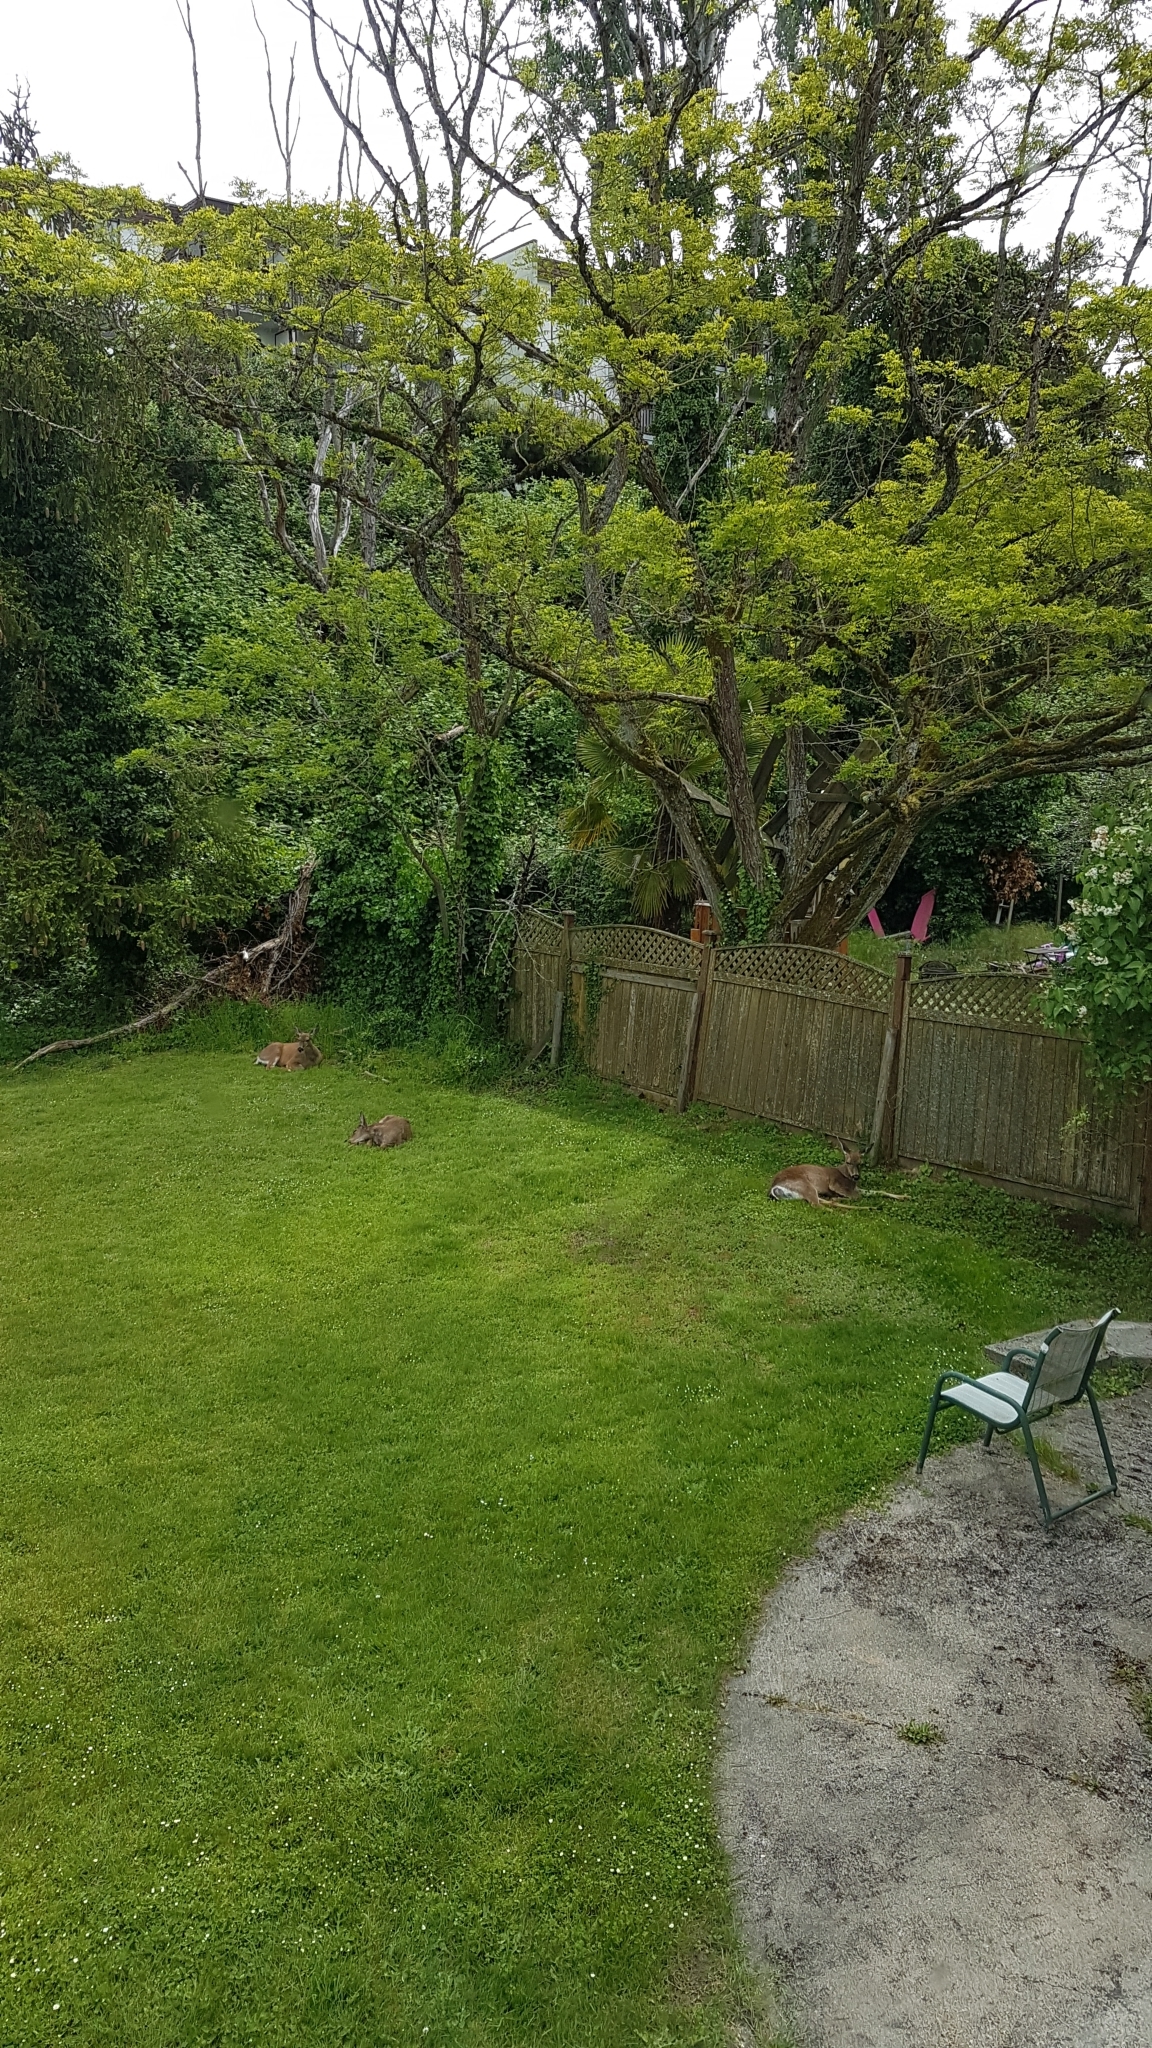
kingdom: Animalia
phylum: Chordata
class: Mammalia
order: Artiodactyla
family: Cervidae
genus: Odocoileus
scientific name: Odocoileus hemionus
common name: Mule deer
